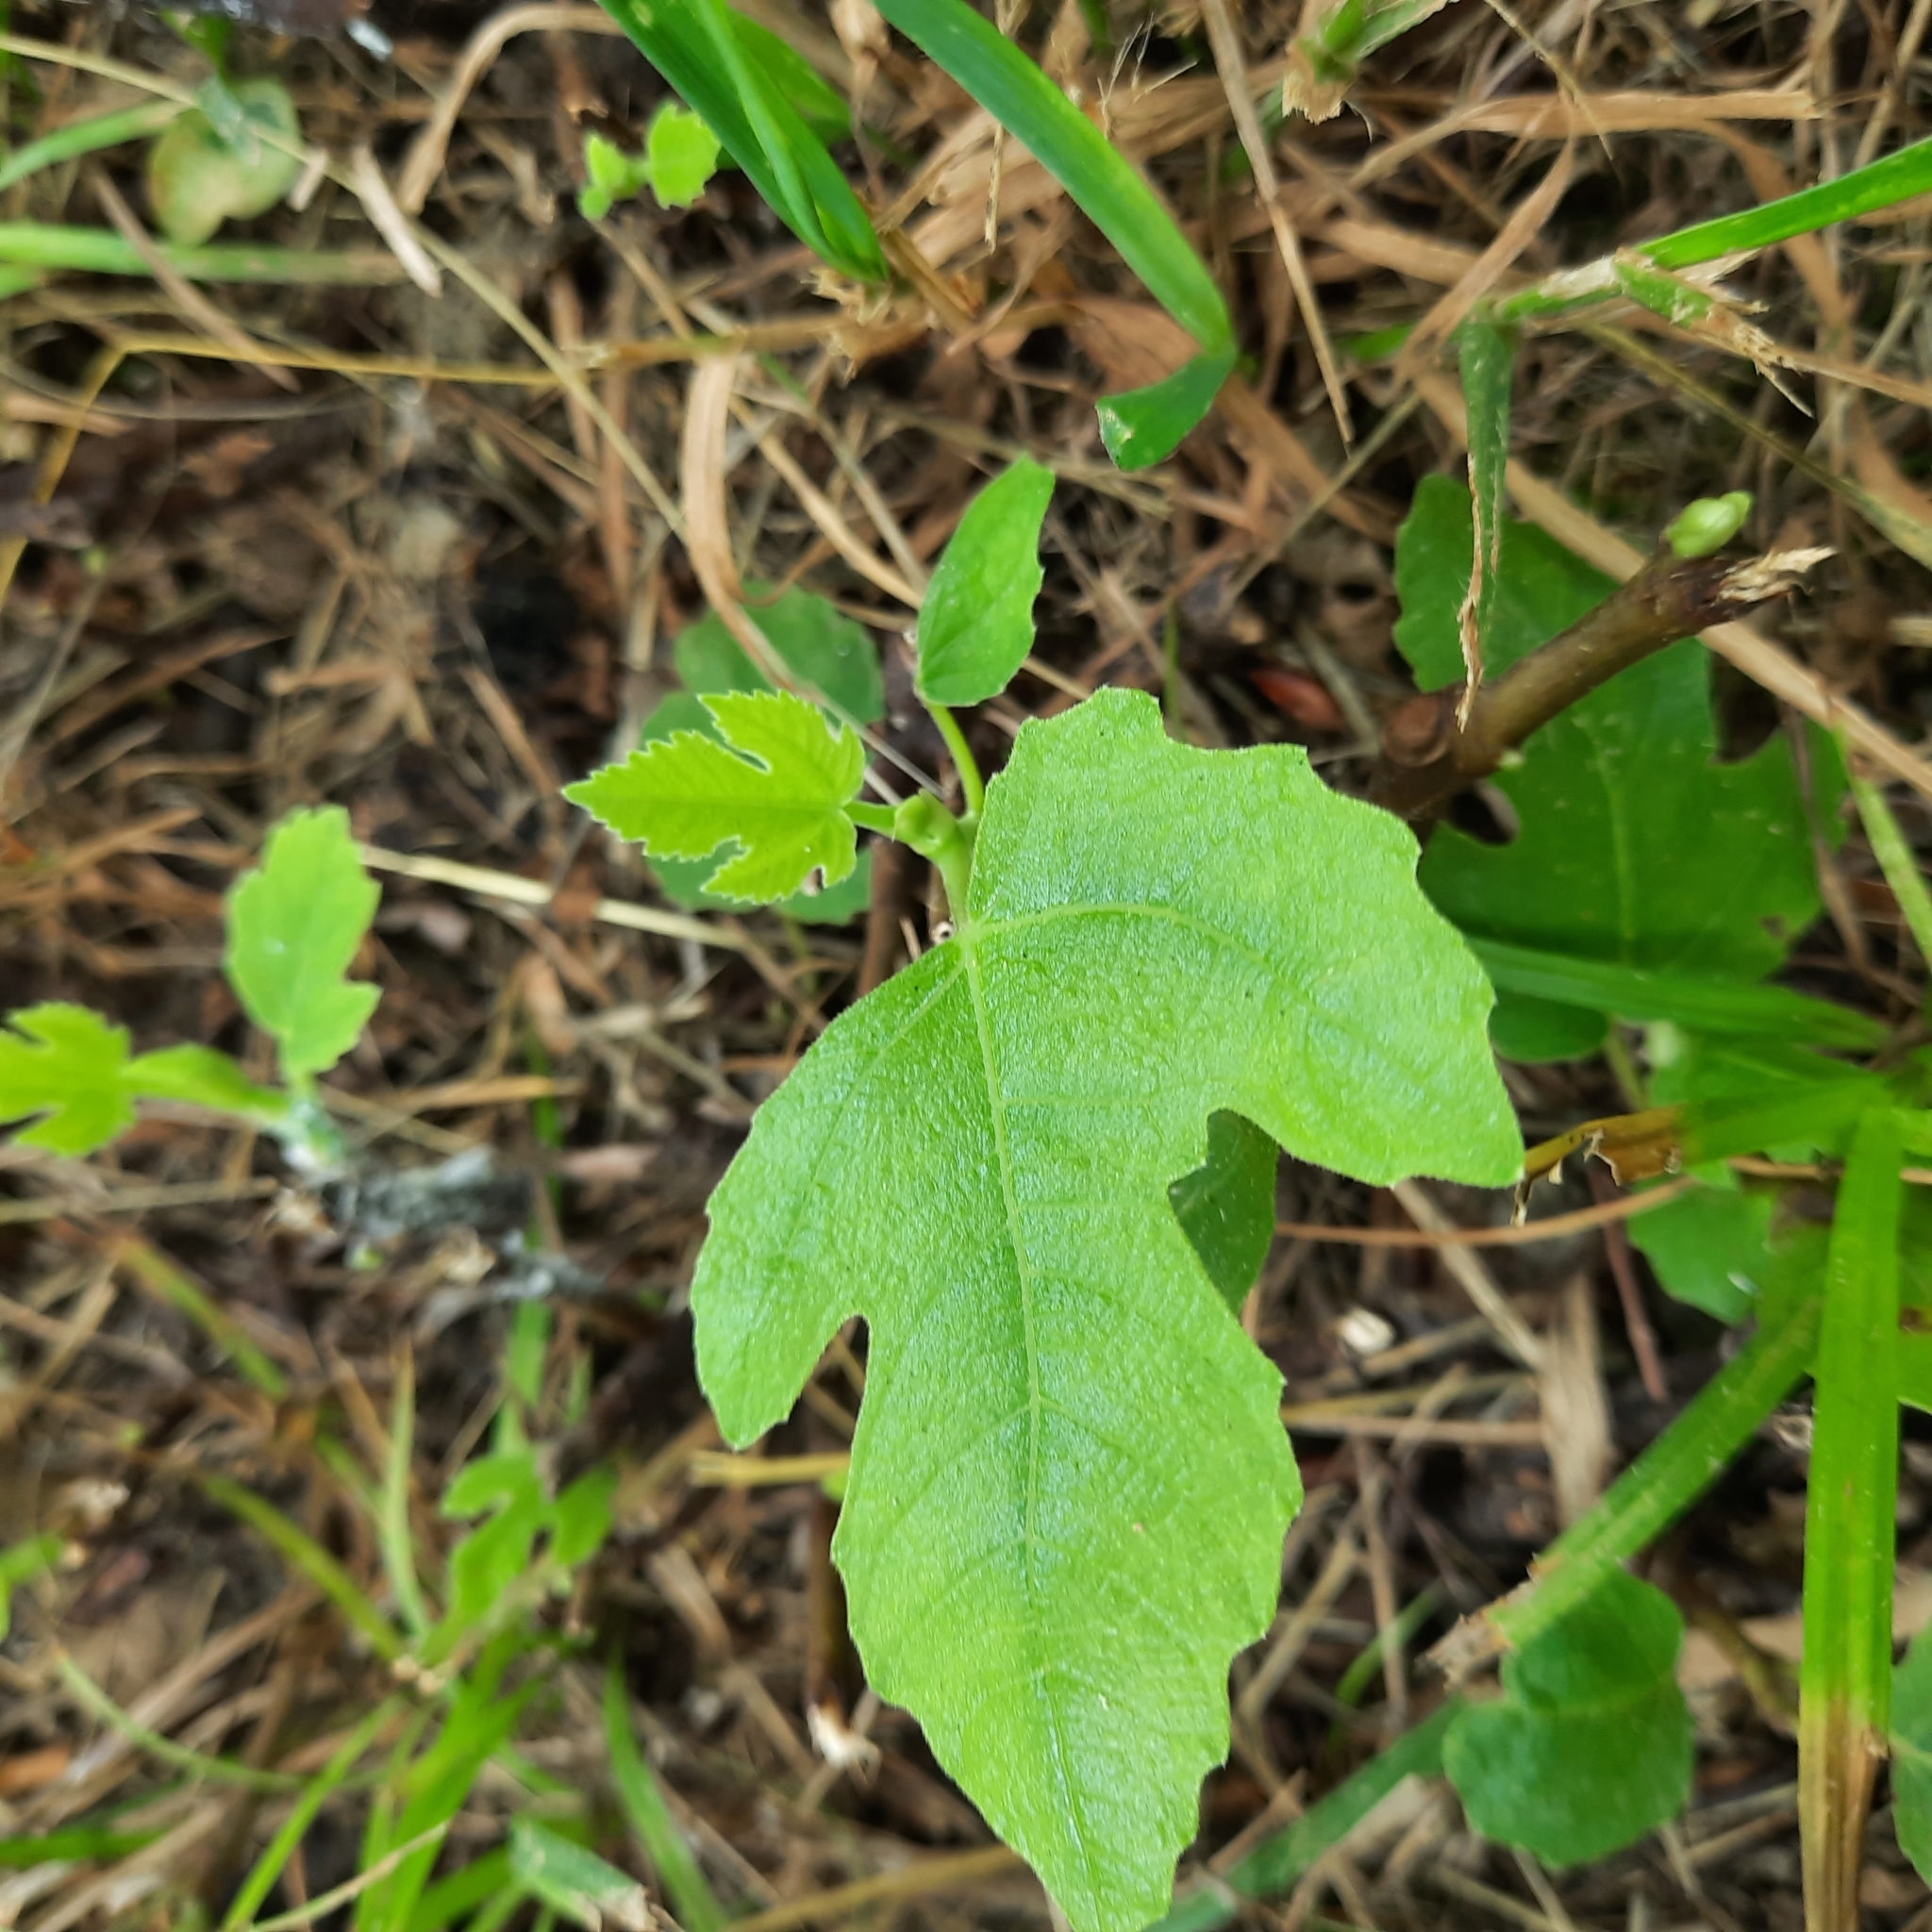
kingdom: Plantae
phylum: Tracheophyta
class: Magnoliopsida
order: Rosales
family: Moraceae
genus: Ficus
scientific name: Ficus carica
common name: Fig
